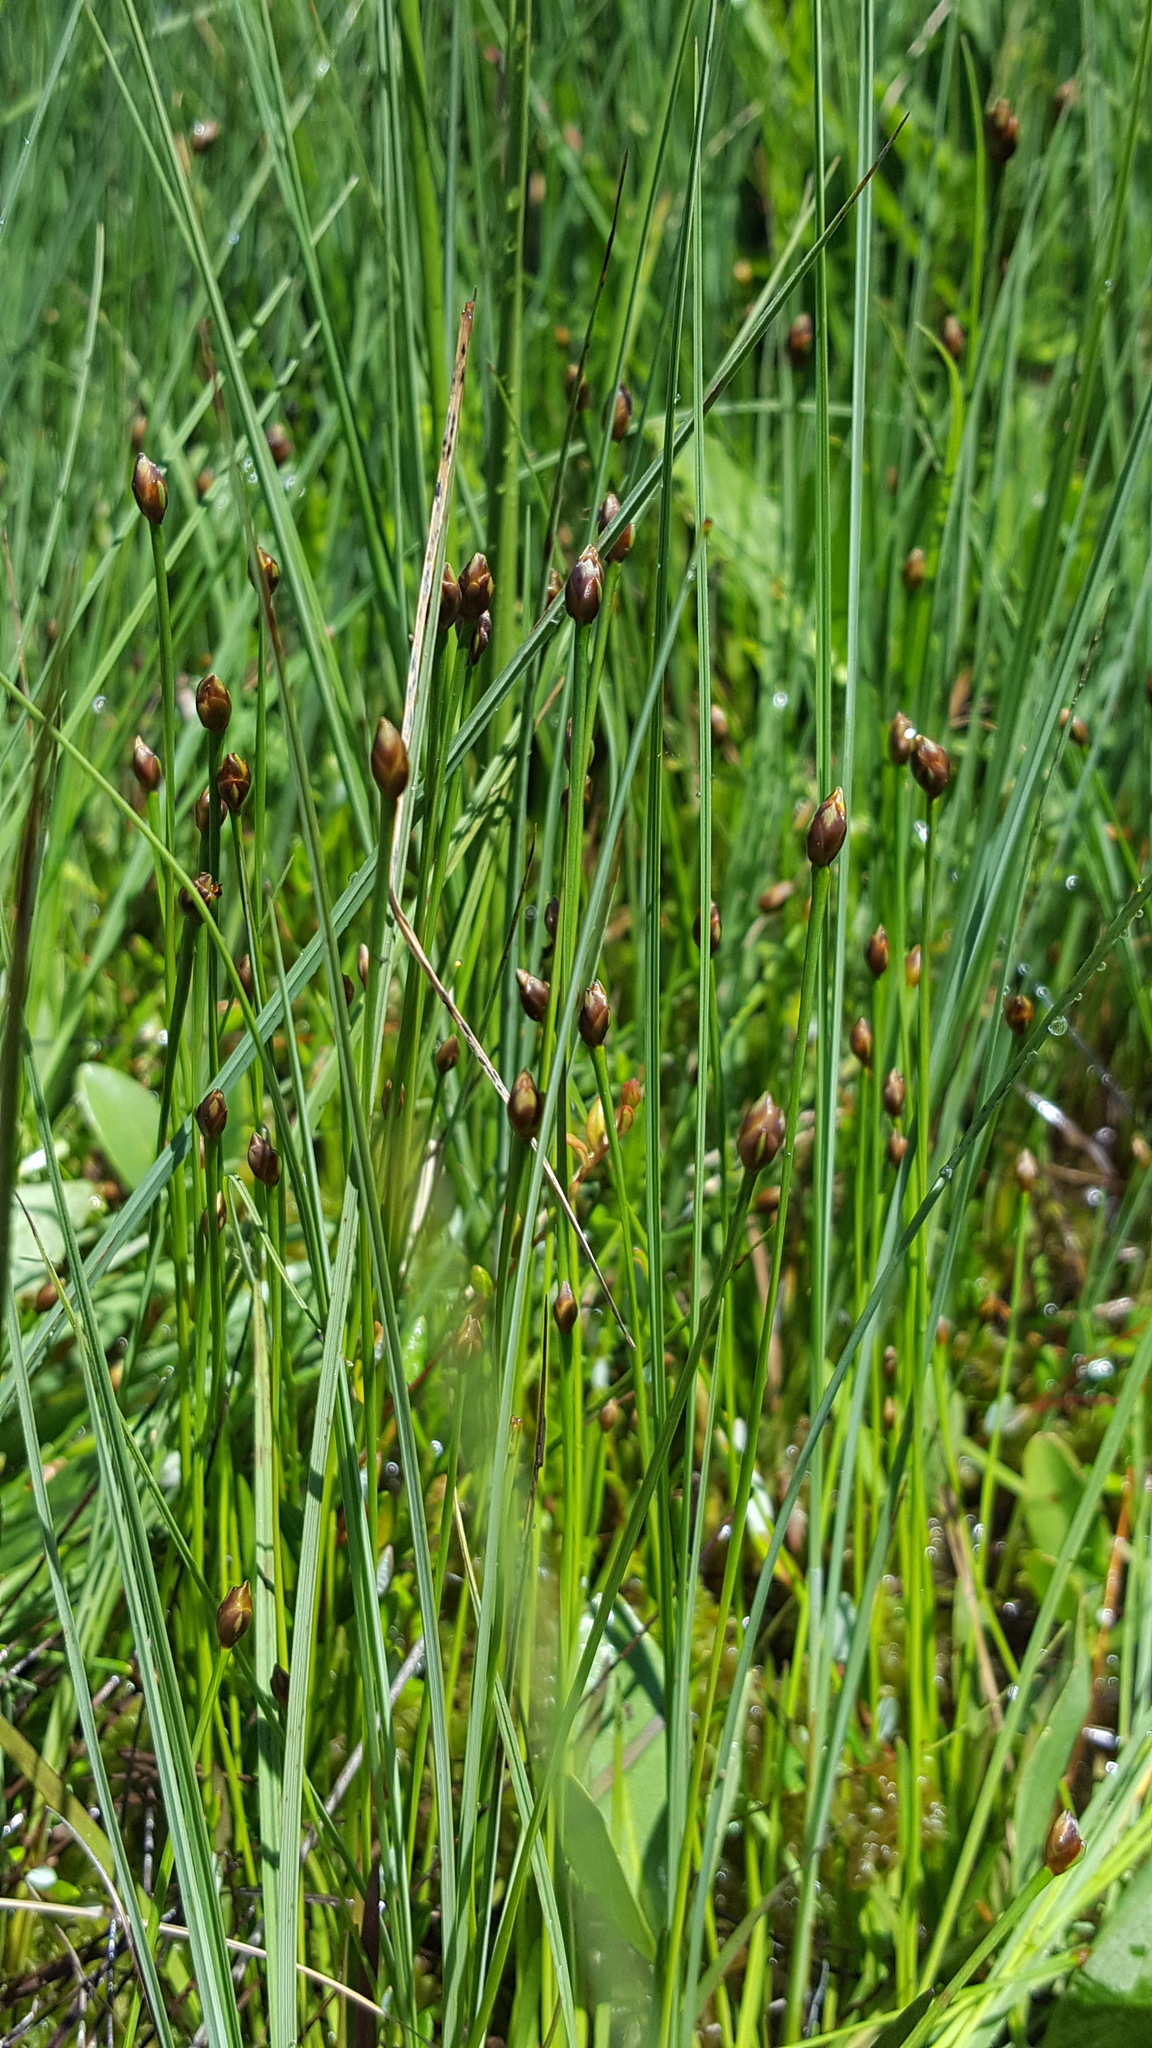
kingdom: Plantae
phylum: Tracheophyta
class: Liliopsida
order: Poales
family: Xyridaceae
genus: Xyris
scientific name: Xyris montana
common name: Northern yellow-eyed-grass
